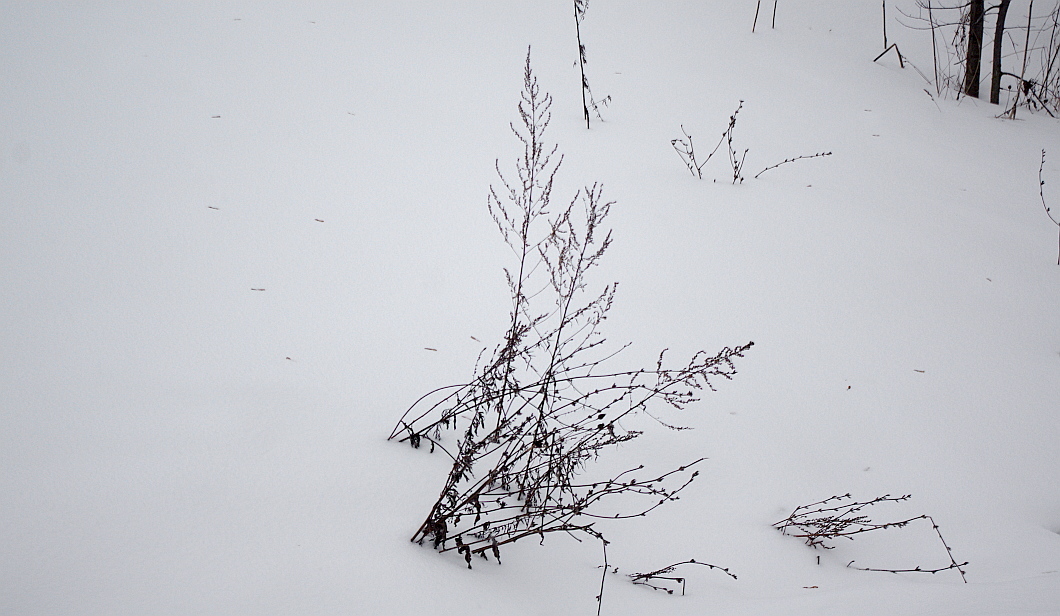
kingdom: Plantae
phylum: Tracheophyta
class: Magnoliopsida
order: Asterales
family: Asteraceae
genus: Artemisia
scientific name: Artemisia vulgaris
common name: Mugwort
